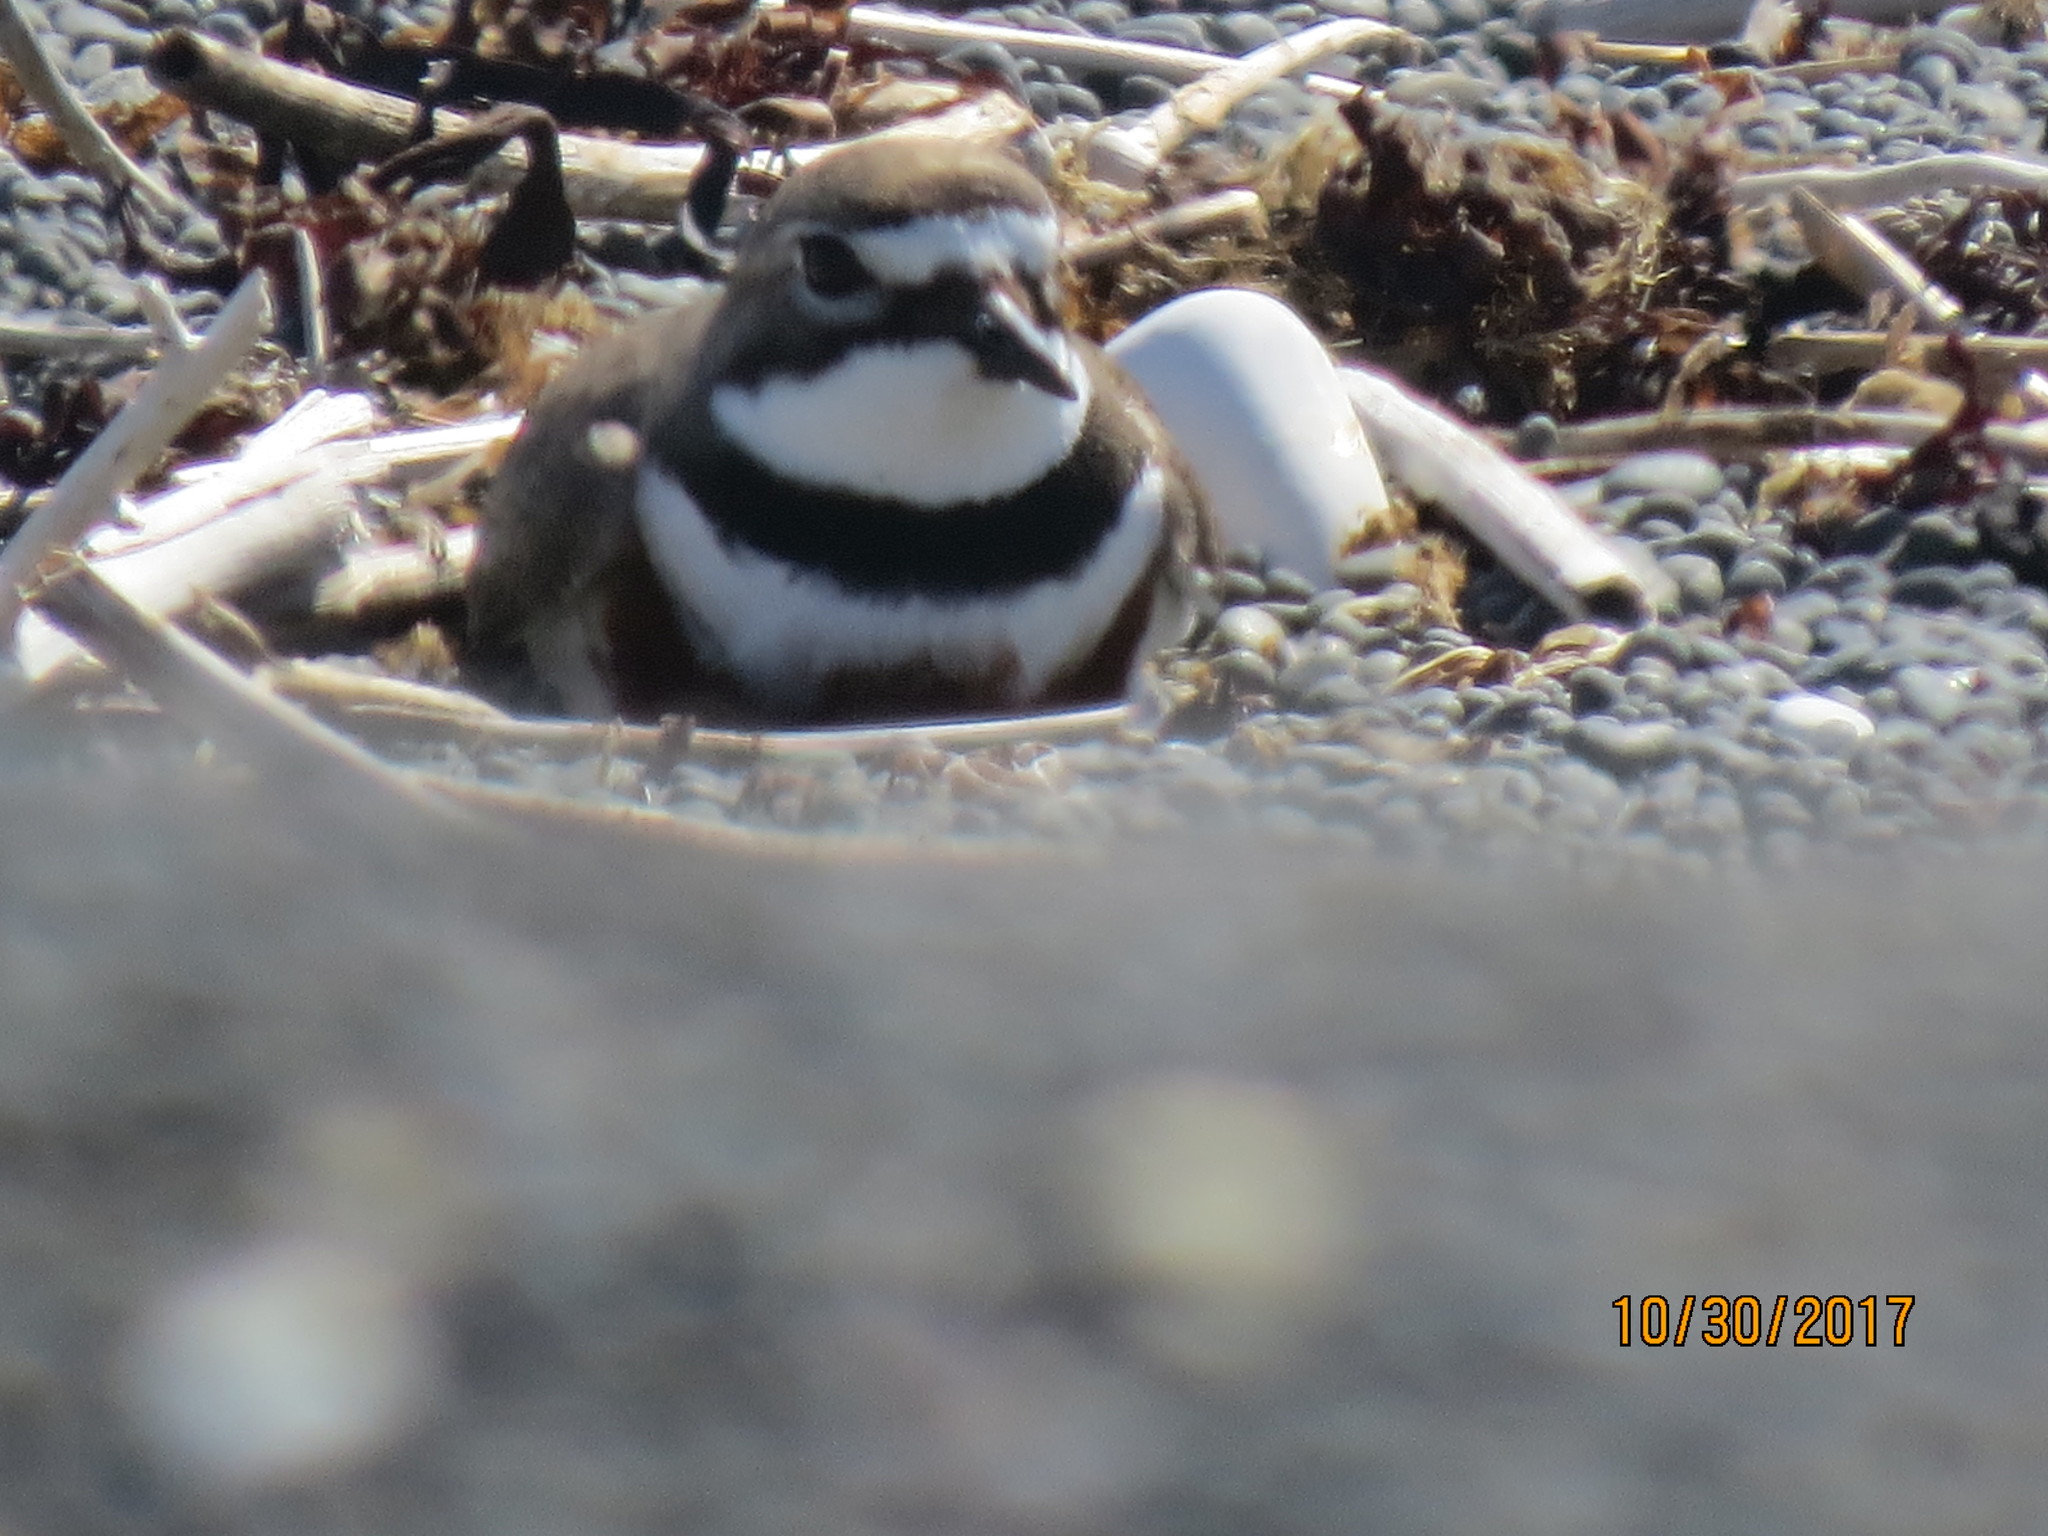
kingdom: Animalia
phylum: Chordata
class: Aves
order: Charadriiformes
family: Charadriidae
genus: Anarhynchus
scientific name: Anarhynchus
